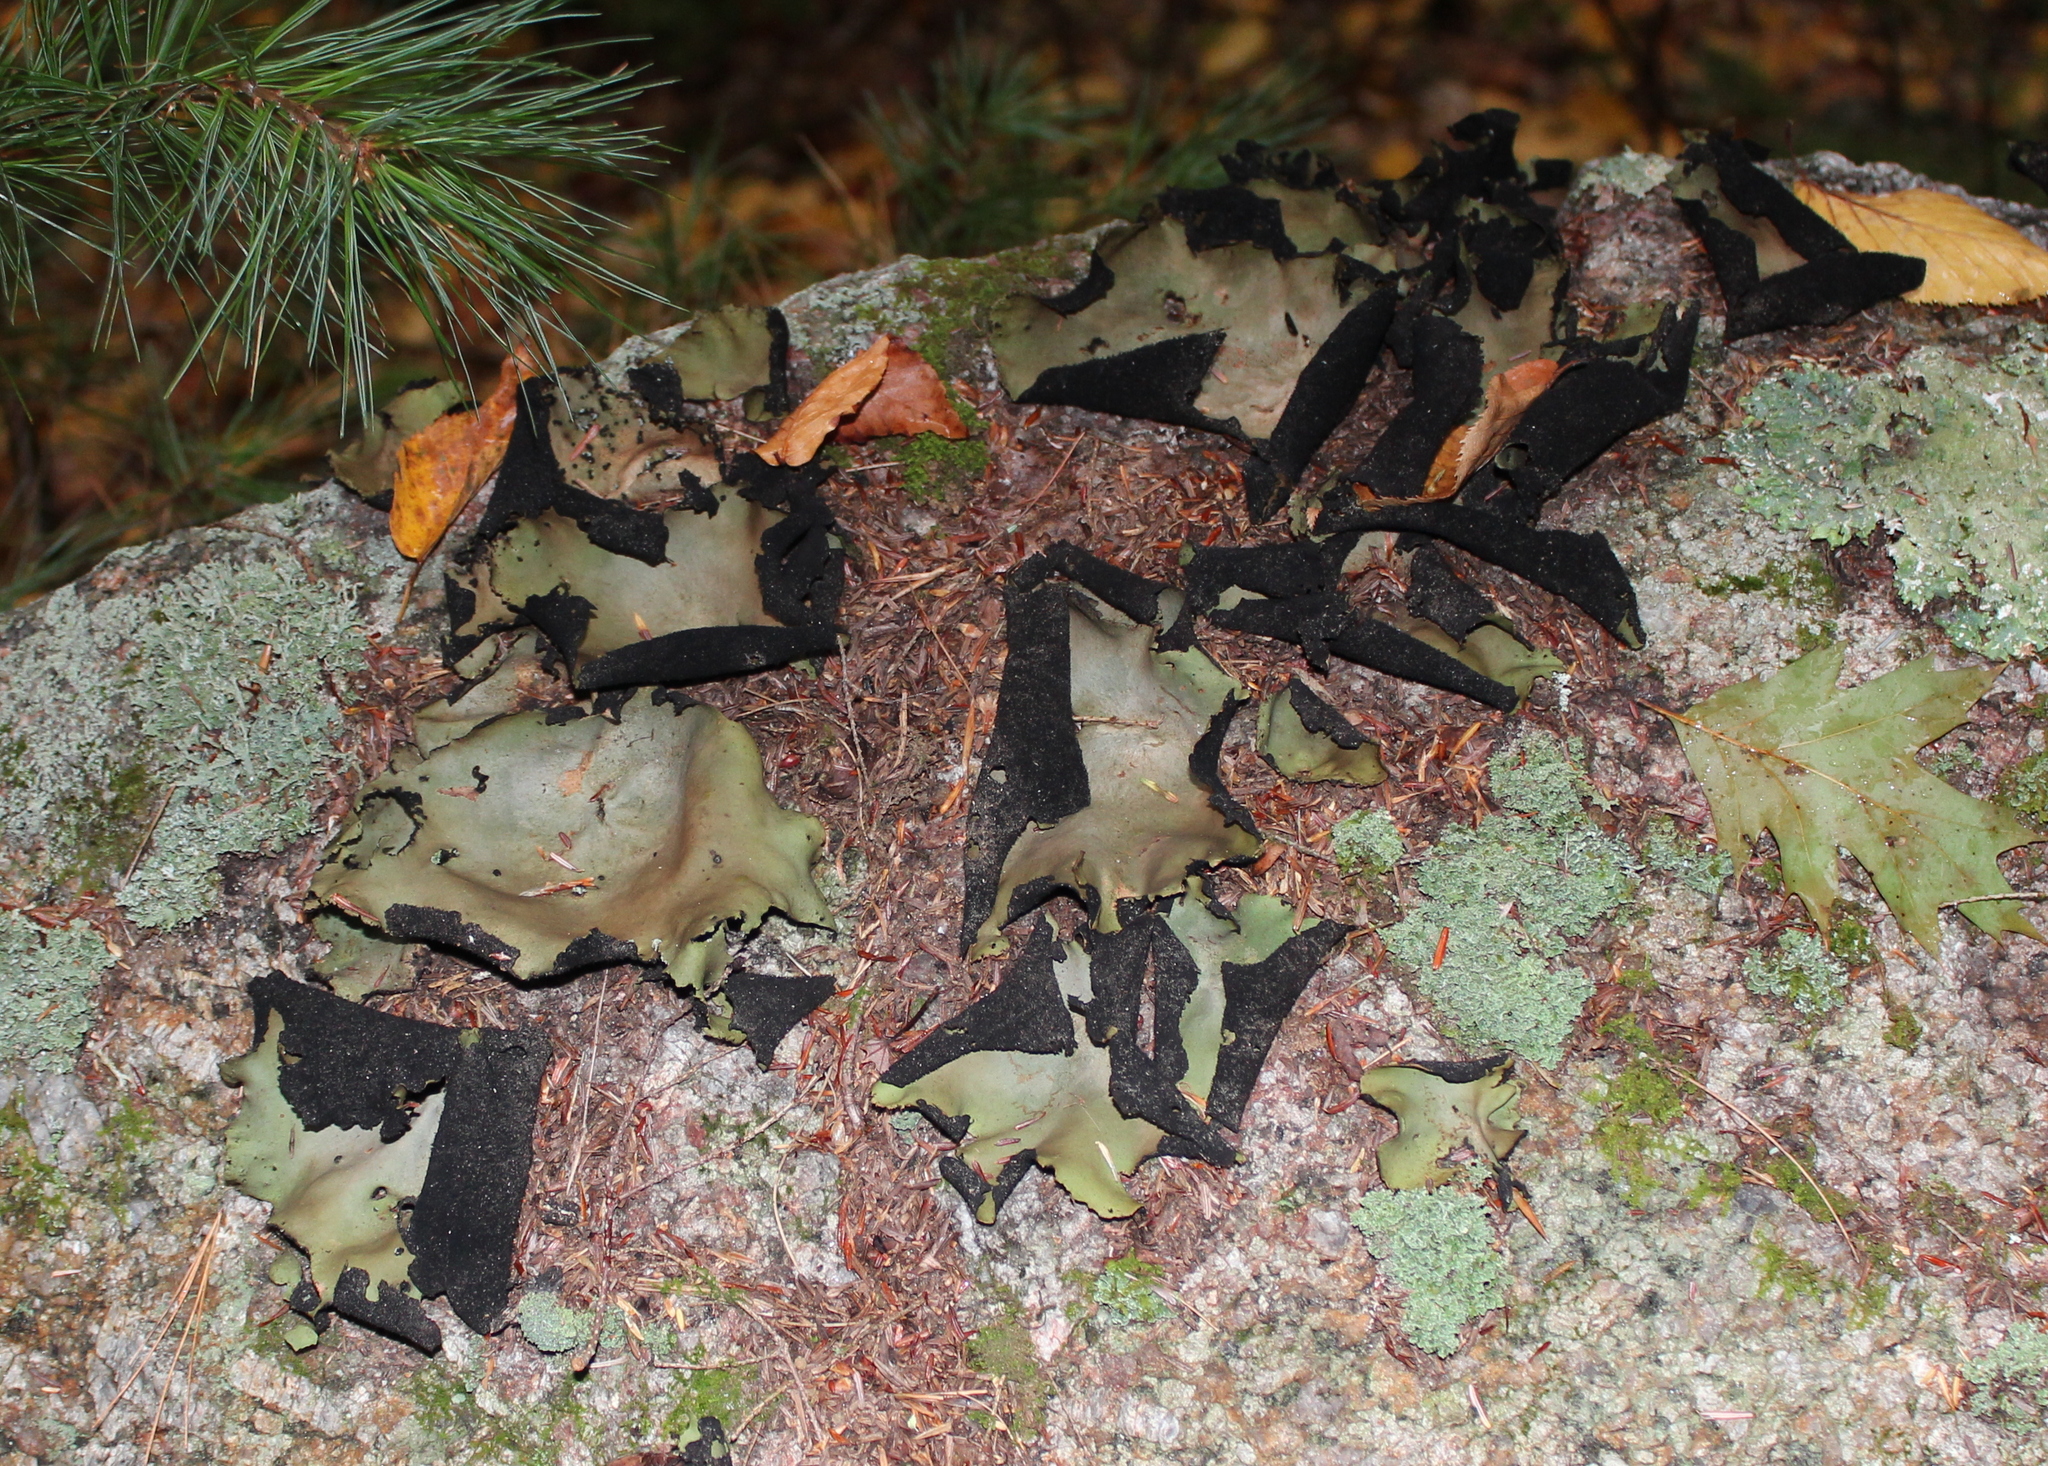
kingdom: Fungi
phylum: Ascomycota
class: Lecanoromycetes
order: Umbilicariales
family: Umbilicariaceae
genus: Umbilicaria
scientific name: Umbilicaria mammulata
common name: Smooth rock tripe
